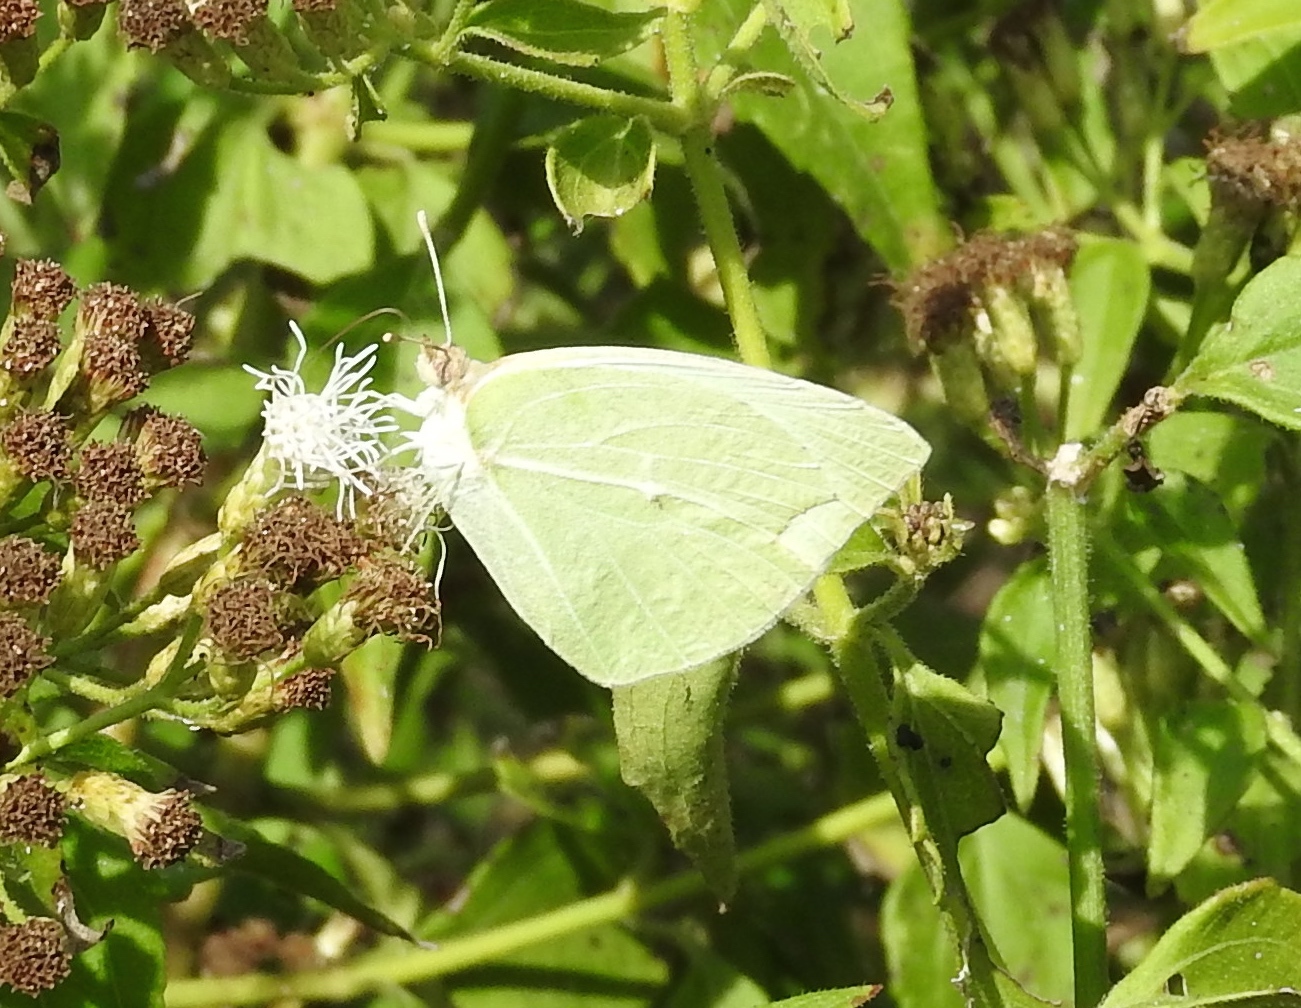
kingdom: Animalia
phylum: Arthropoda
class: Insecta
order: Lepidoptera
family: Pieridae
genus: Kricogonia
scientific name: Kricogonia lyside
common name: Guayacan sulphur,
